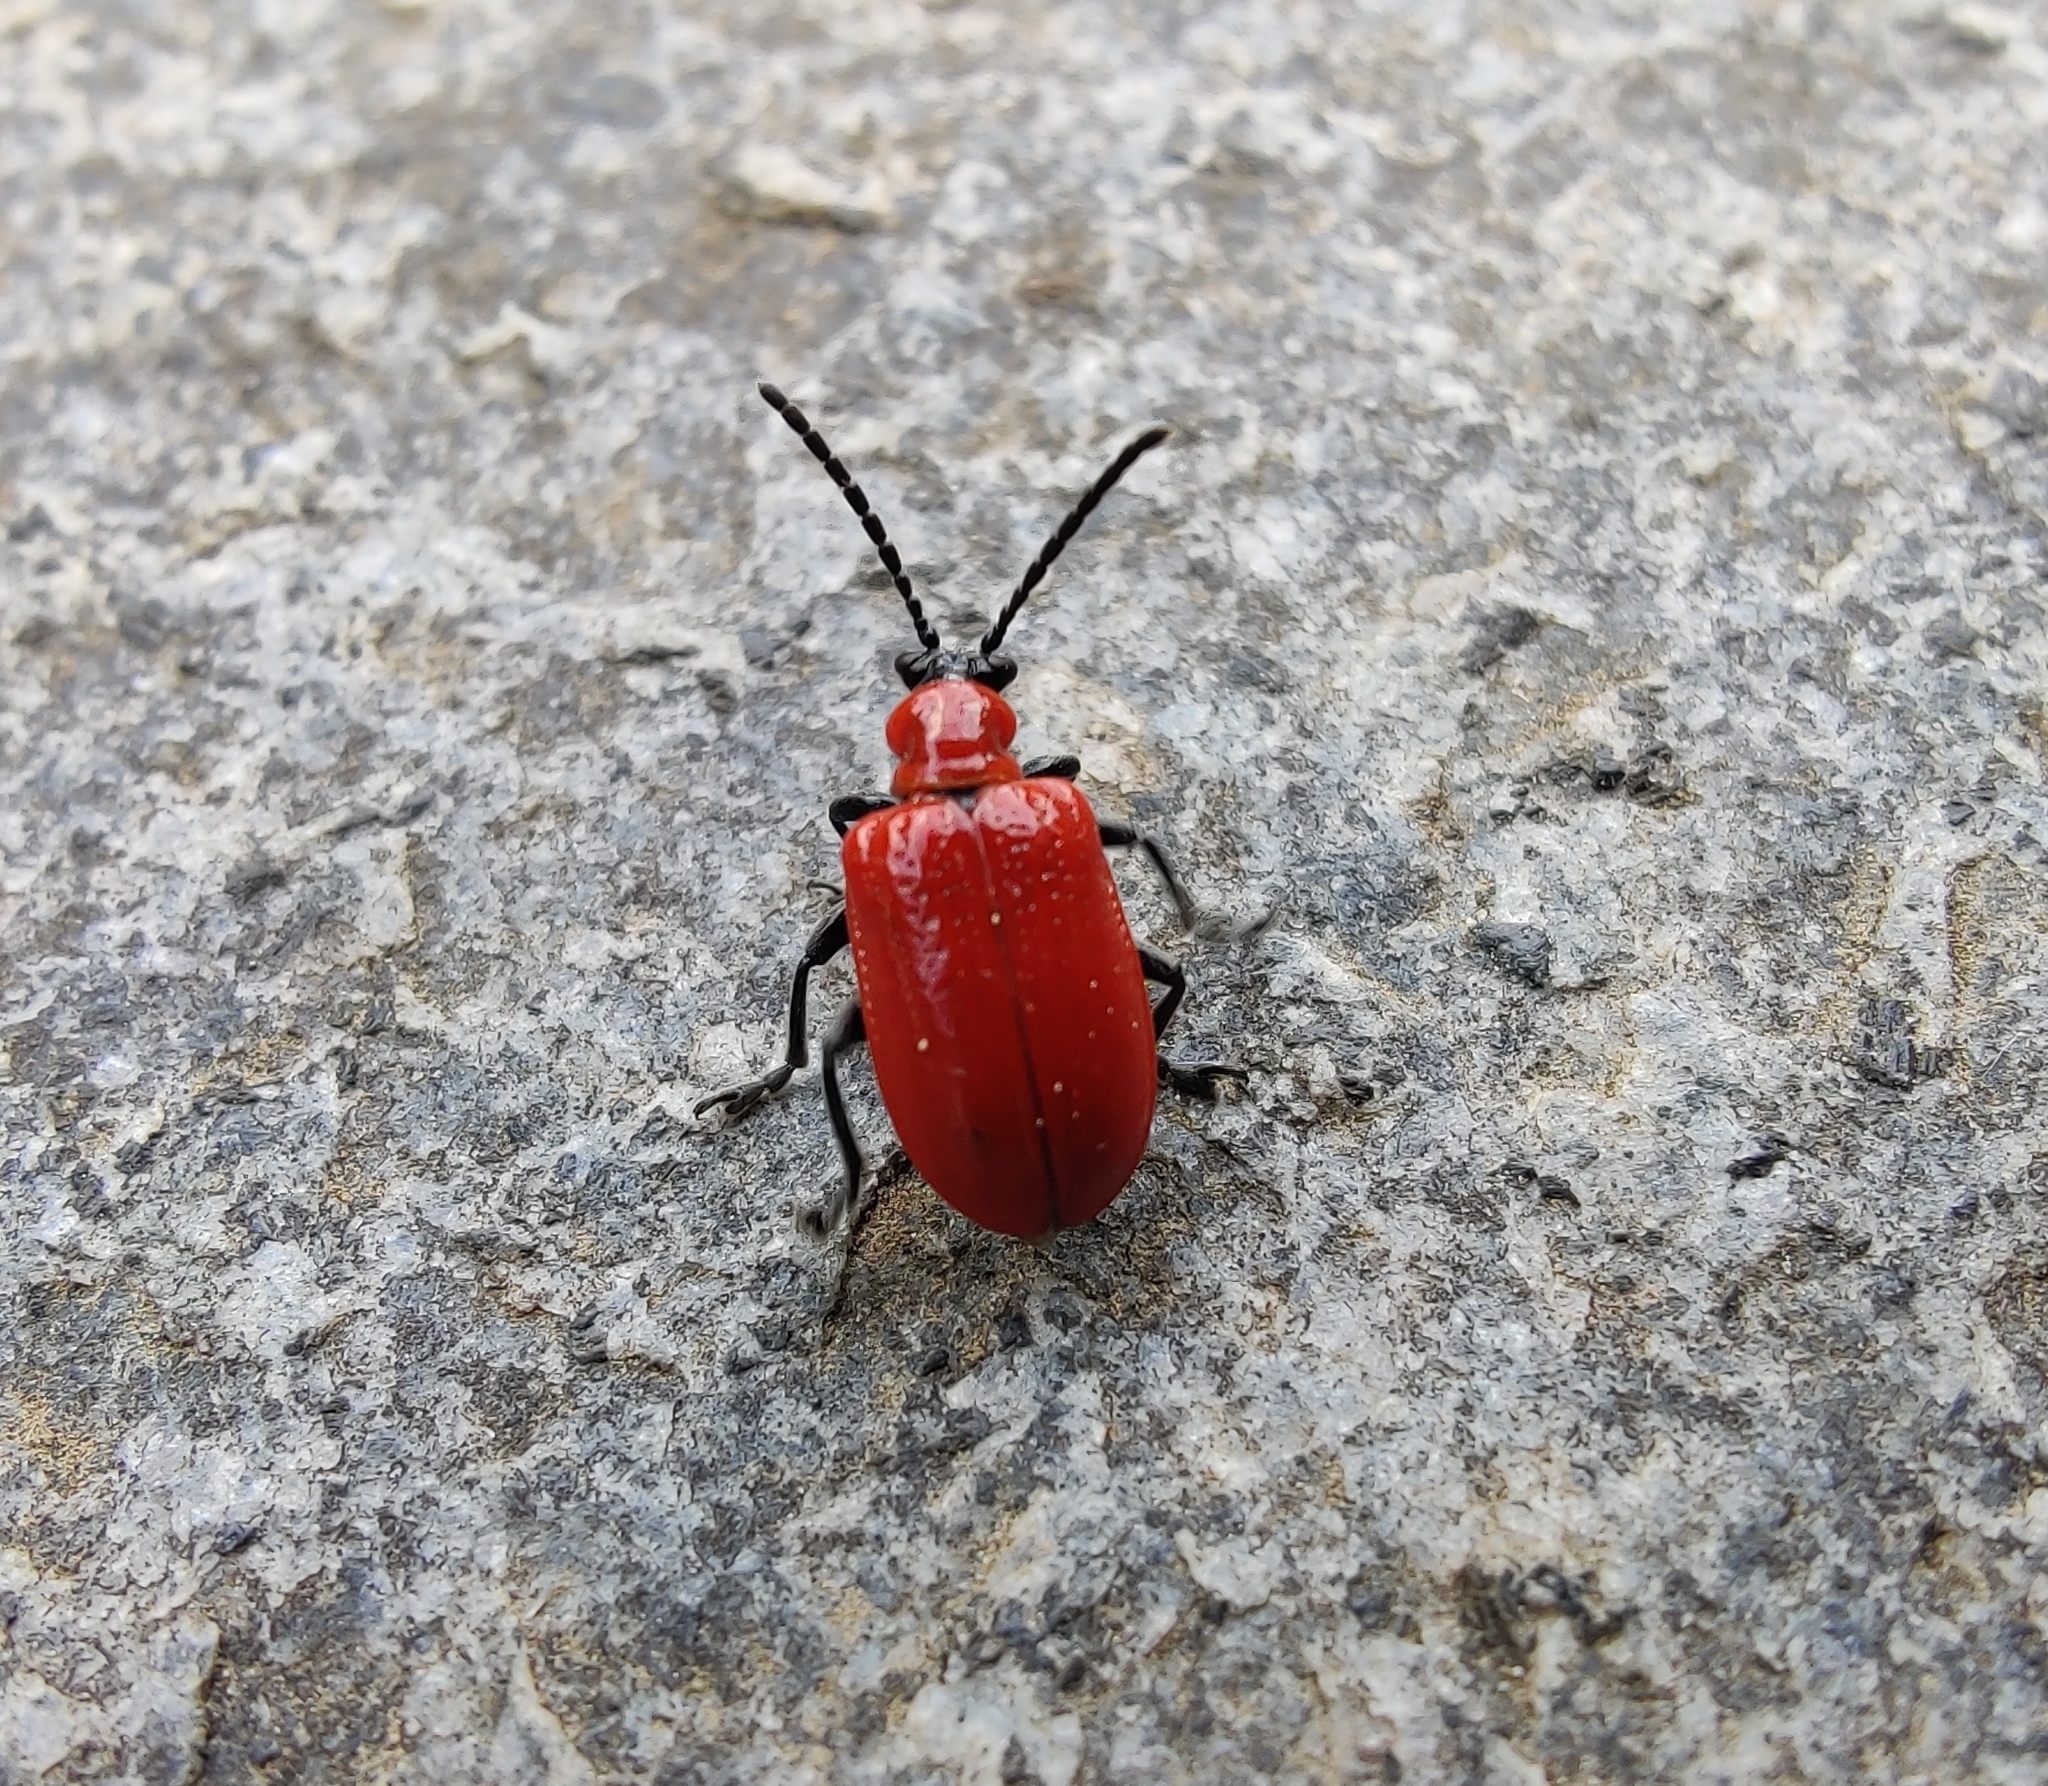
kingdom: Animalia
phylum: Arthropoda
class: Insecta
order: Coleoptera
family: Chrysomelidae
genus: Lilioceris
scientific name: Lilioceris lilii
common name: Lily beetle
